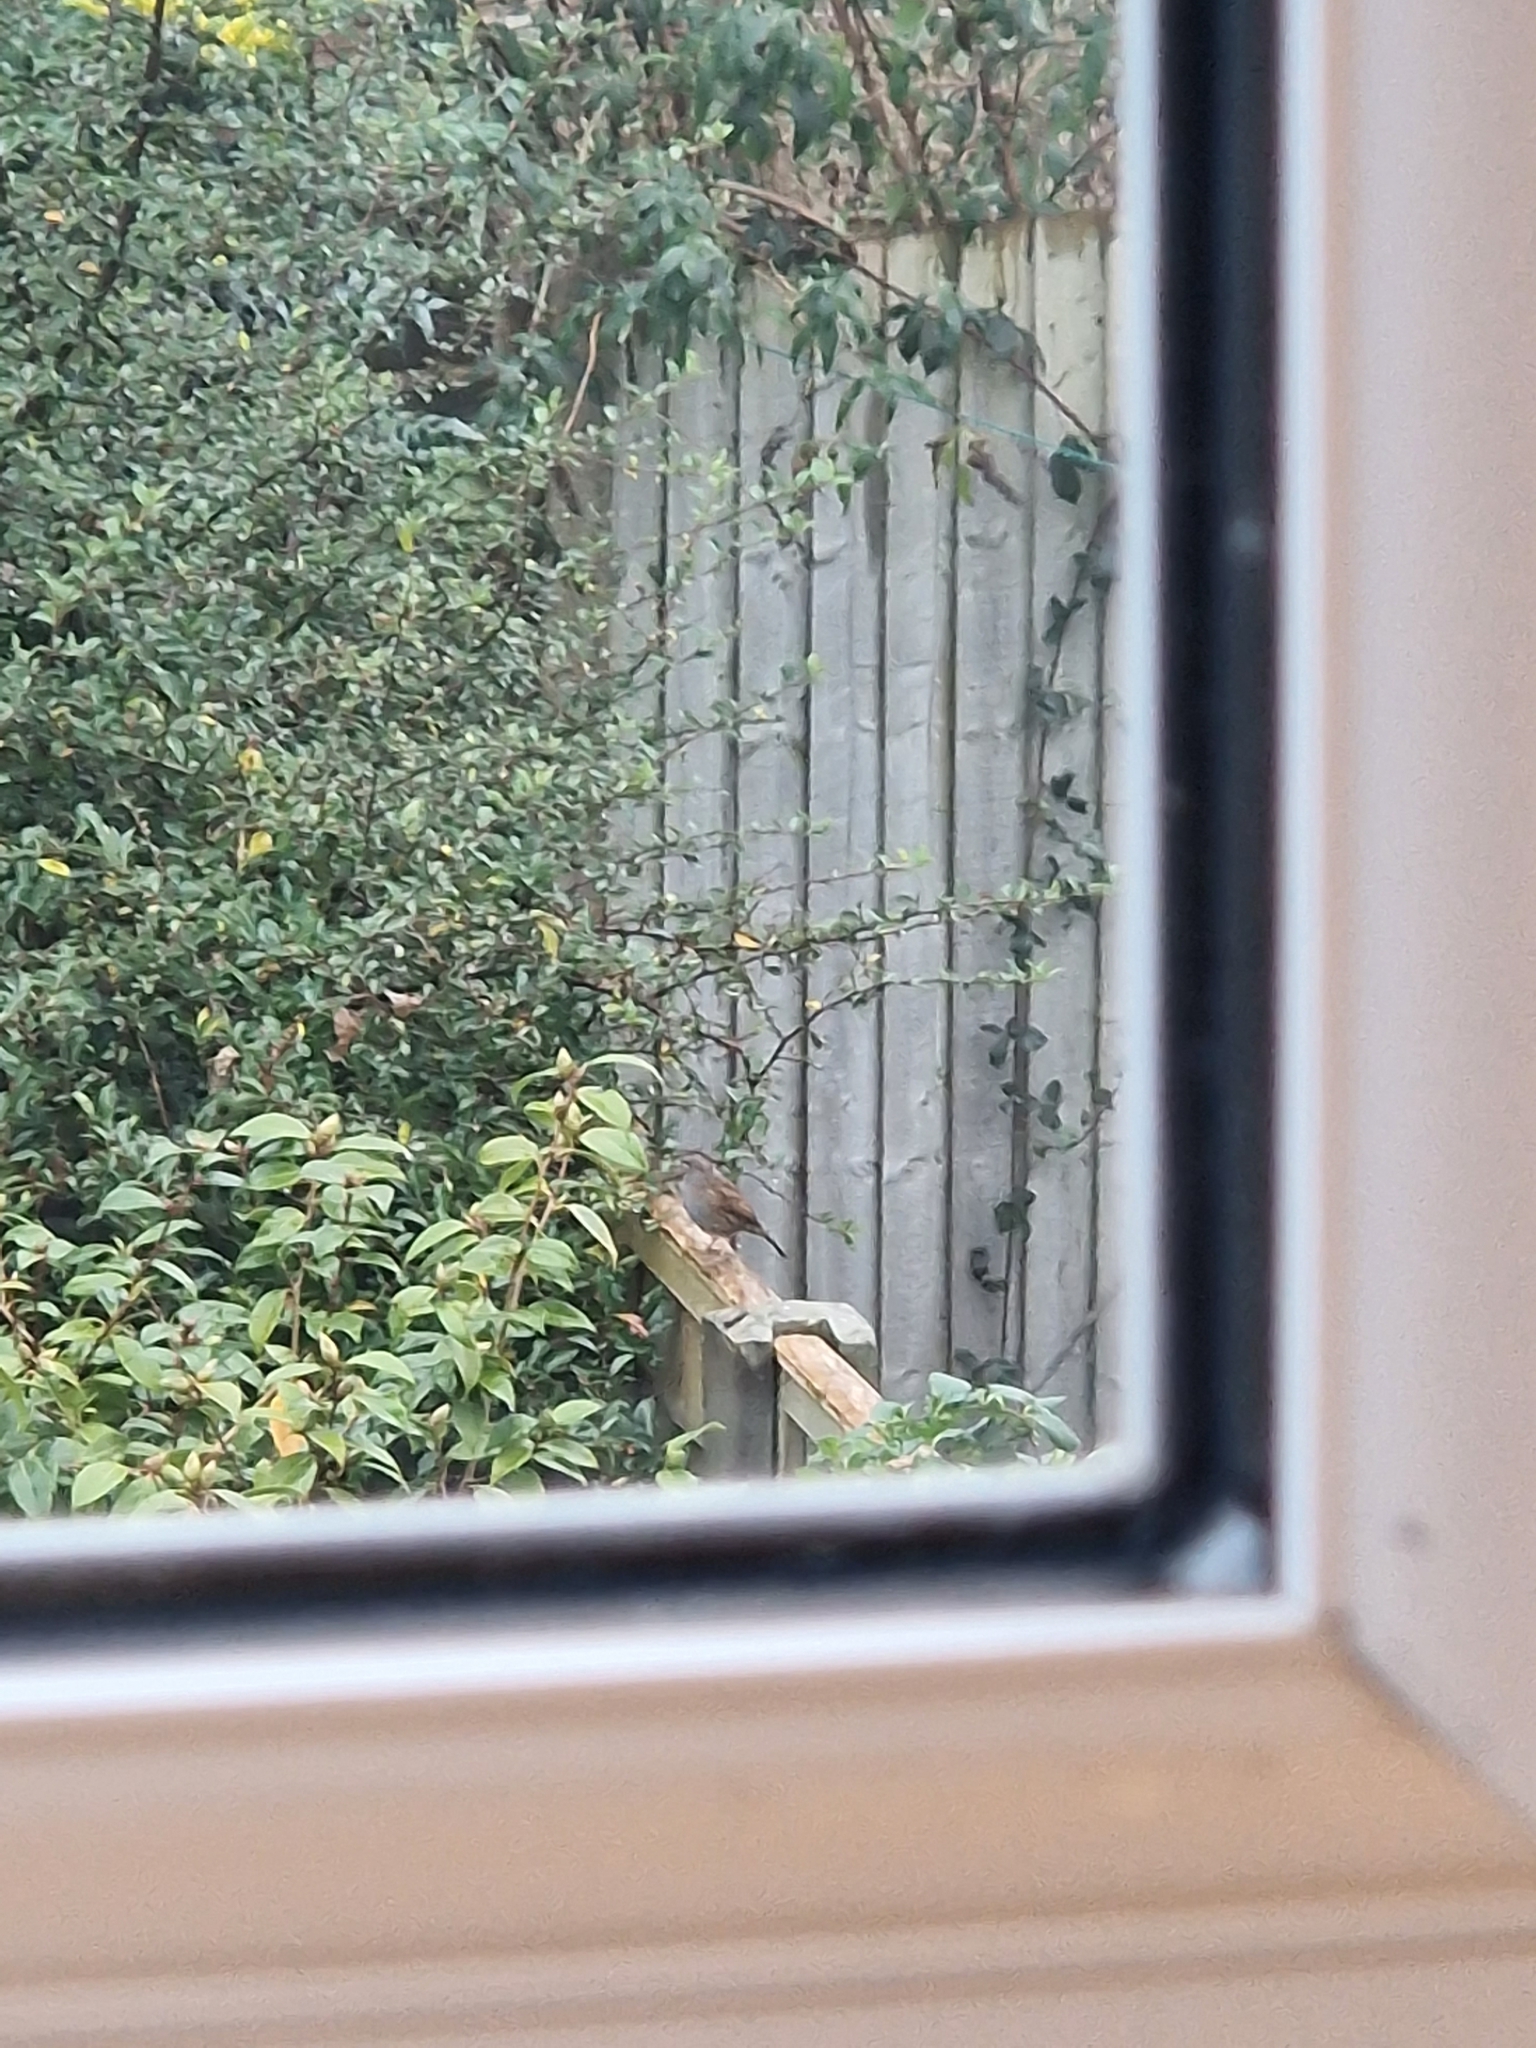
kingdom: Animalia
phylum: Chordata
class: Aves
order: Passeriformes
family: Prunellidae
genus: Prunella
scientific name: Prunella modularis
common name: Dunnock
